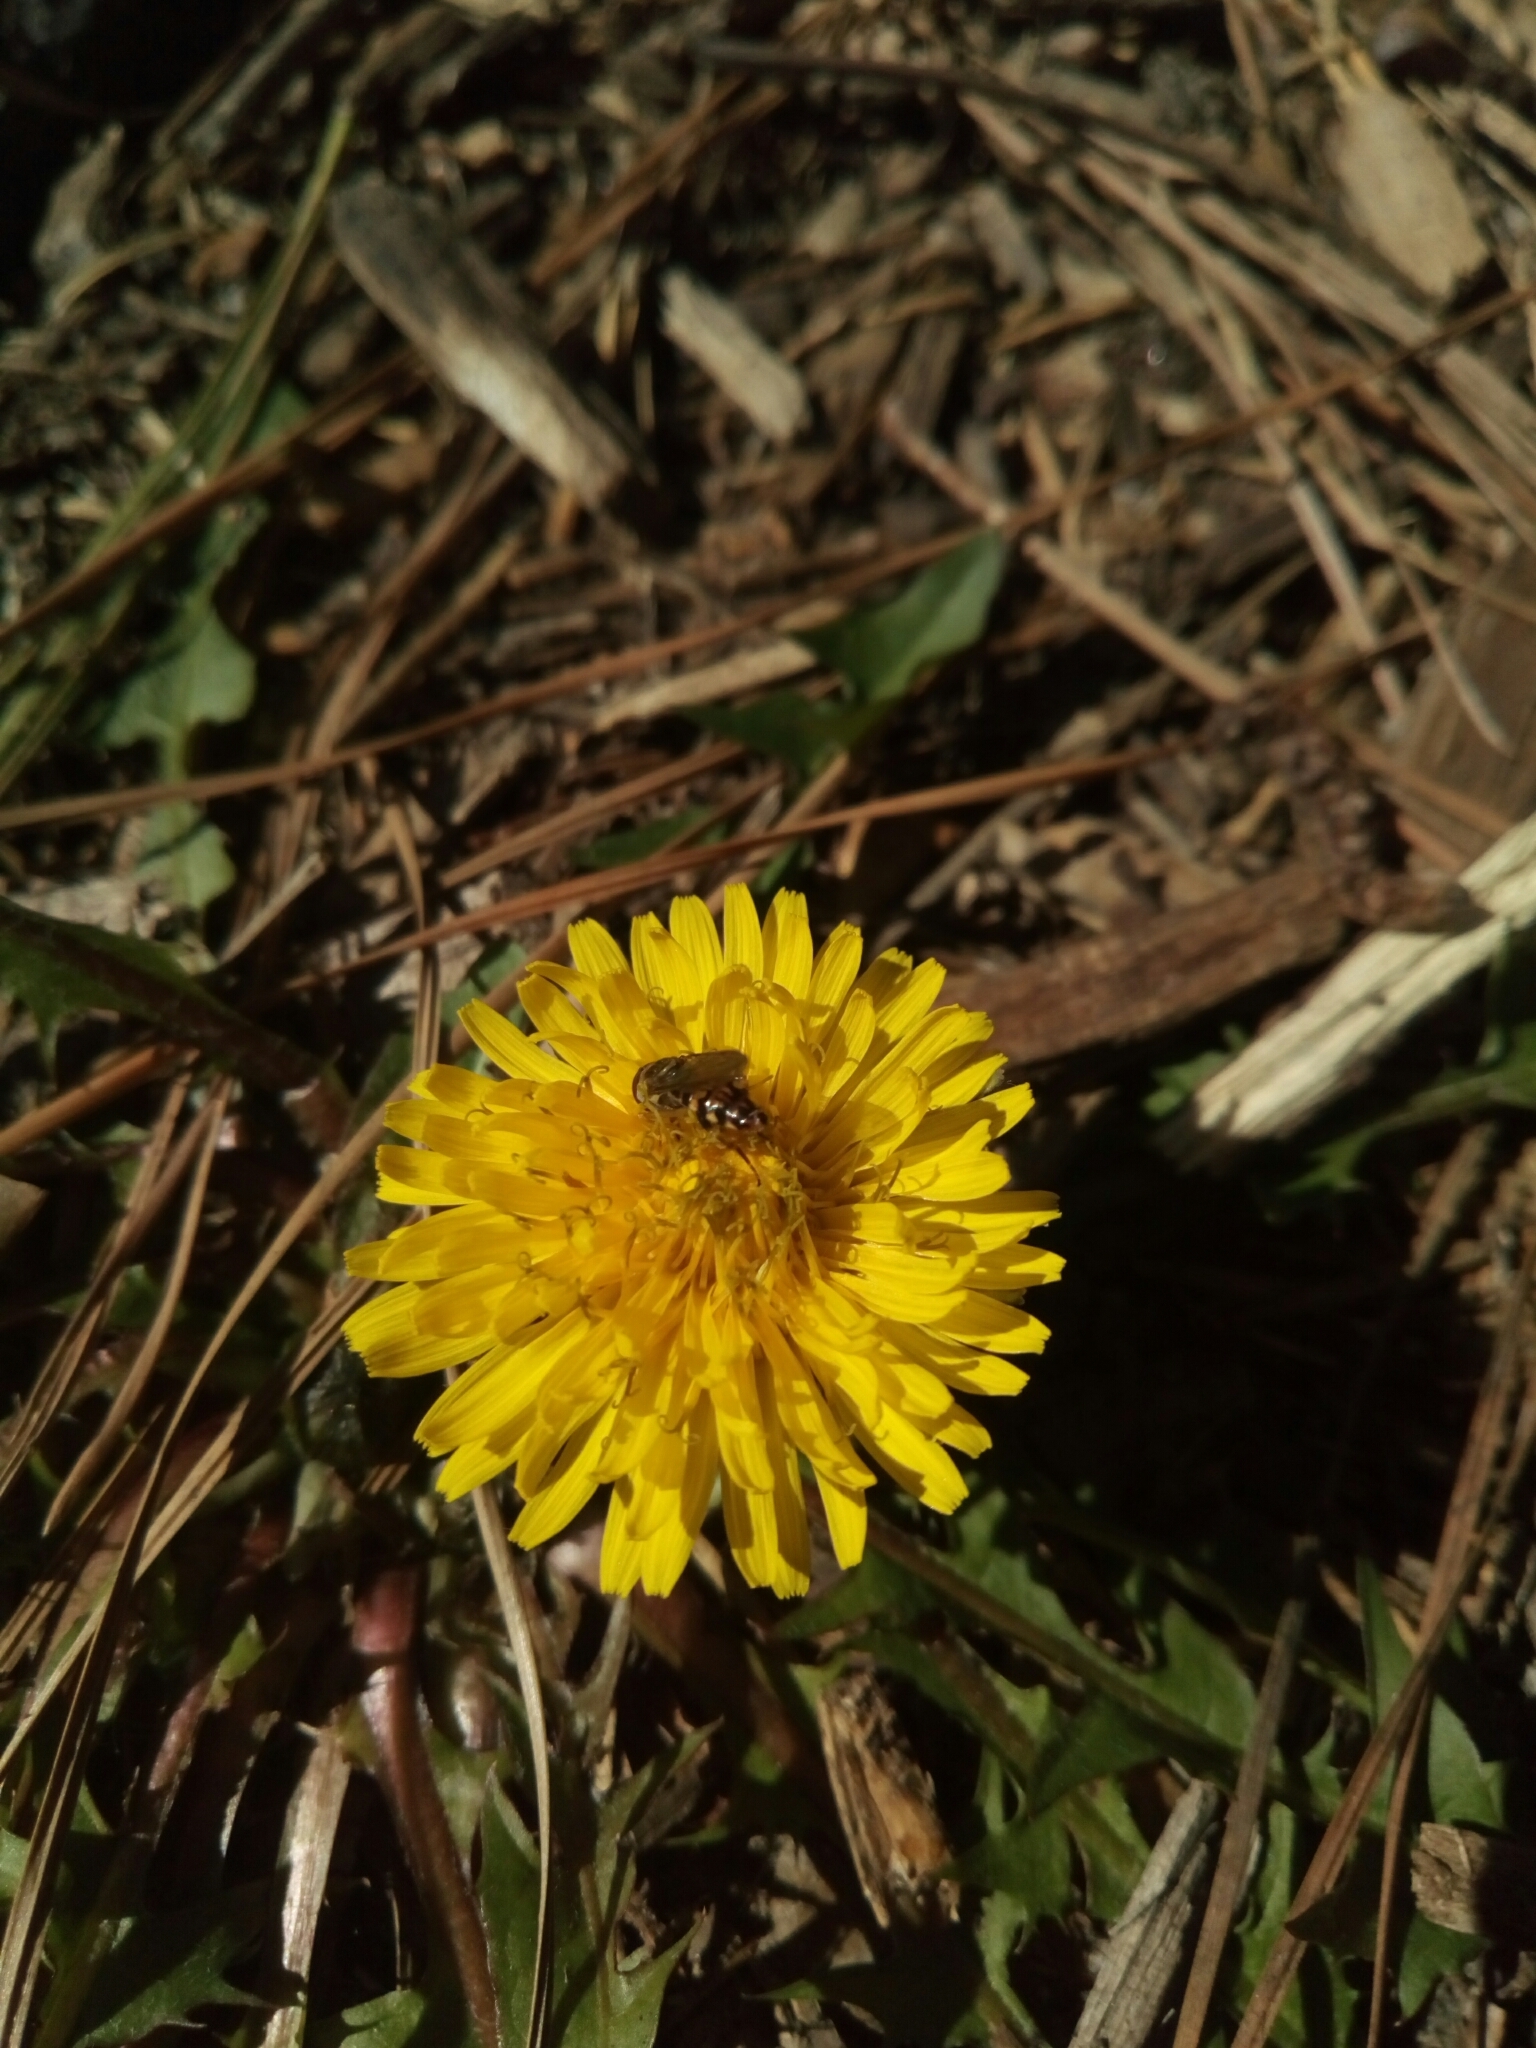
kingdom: Animalia
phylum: Arthropoda
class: Insecta
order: Diptera
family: Syrphidae
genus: Toxomerus
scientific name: Toxomerus geminatus
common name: Eastern calligrapher
